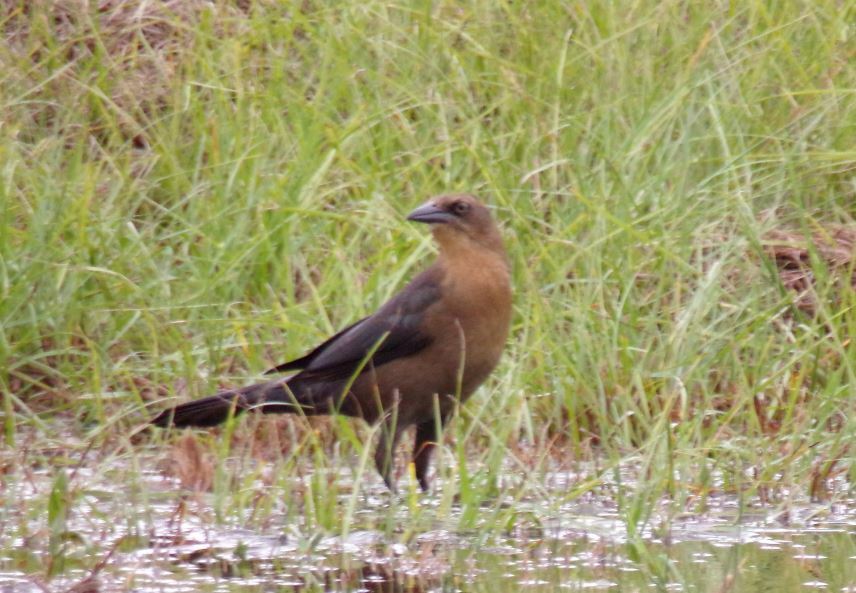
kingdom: Animalia
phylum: Chordata
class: Aves
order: Passeriformes
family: Icteridae
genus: Quiscalus
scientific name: Quiscalus mexicanus
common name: Great-tailed grackle
